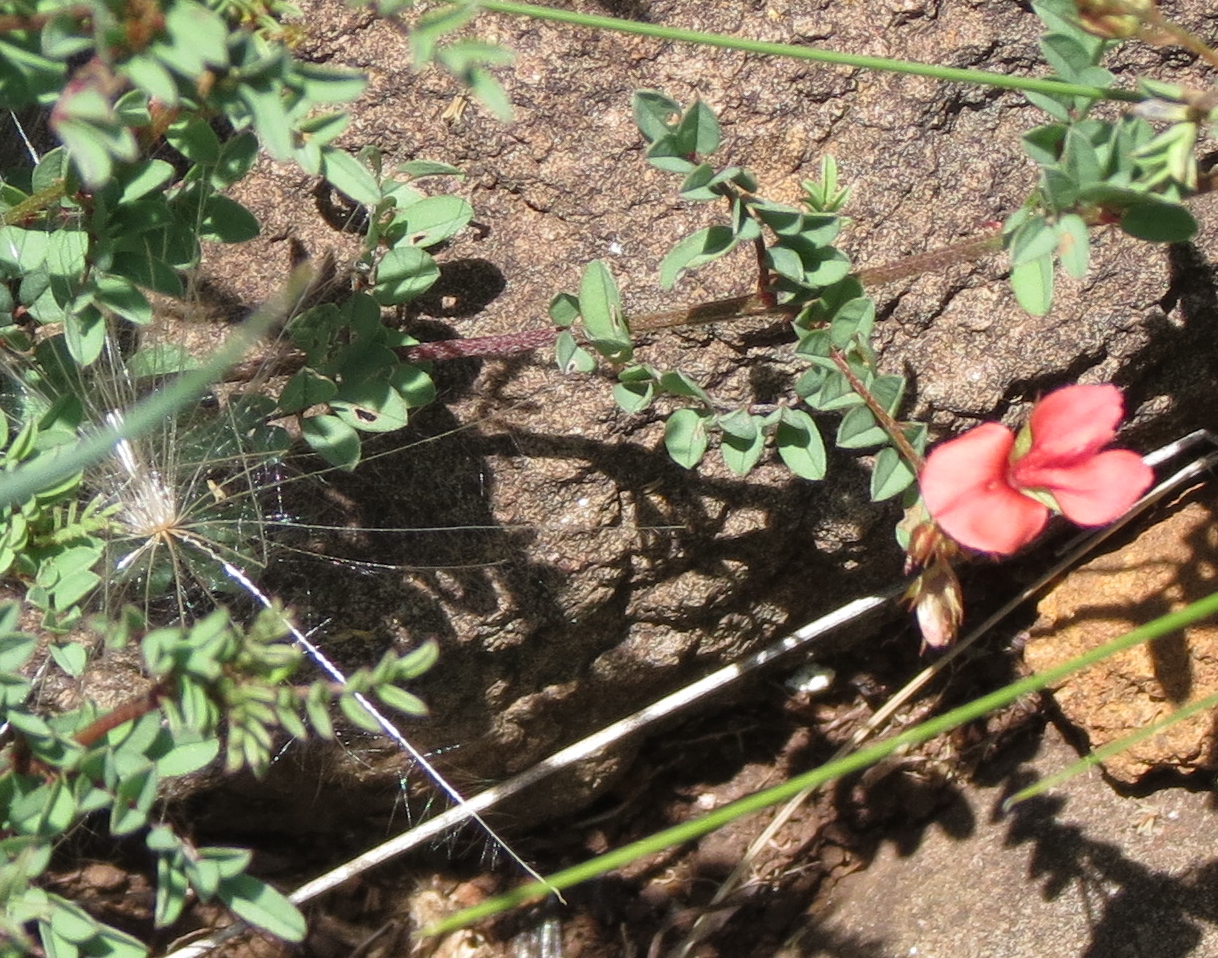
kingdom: Plantae
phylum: Tracheophyta
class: Magnoliopsida
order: Fabales
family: Fabaceae
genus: Indigofera
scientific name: Indigofera hedyantha
